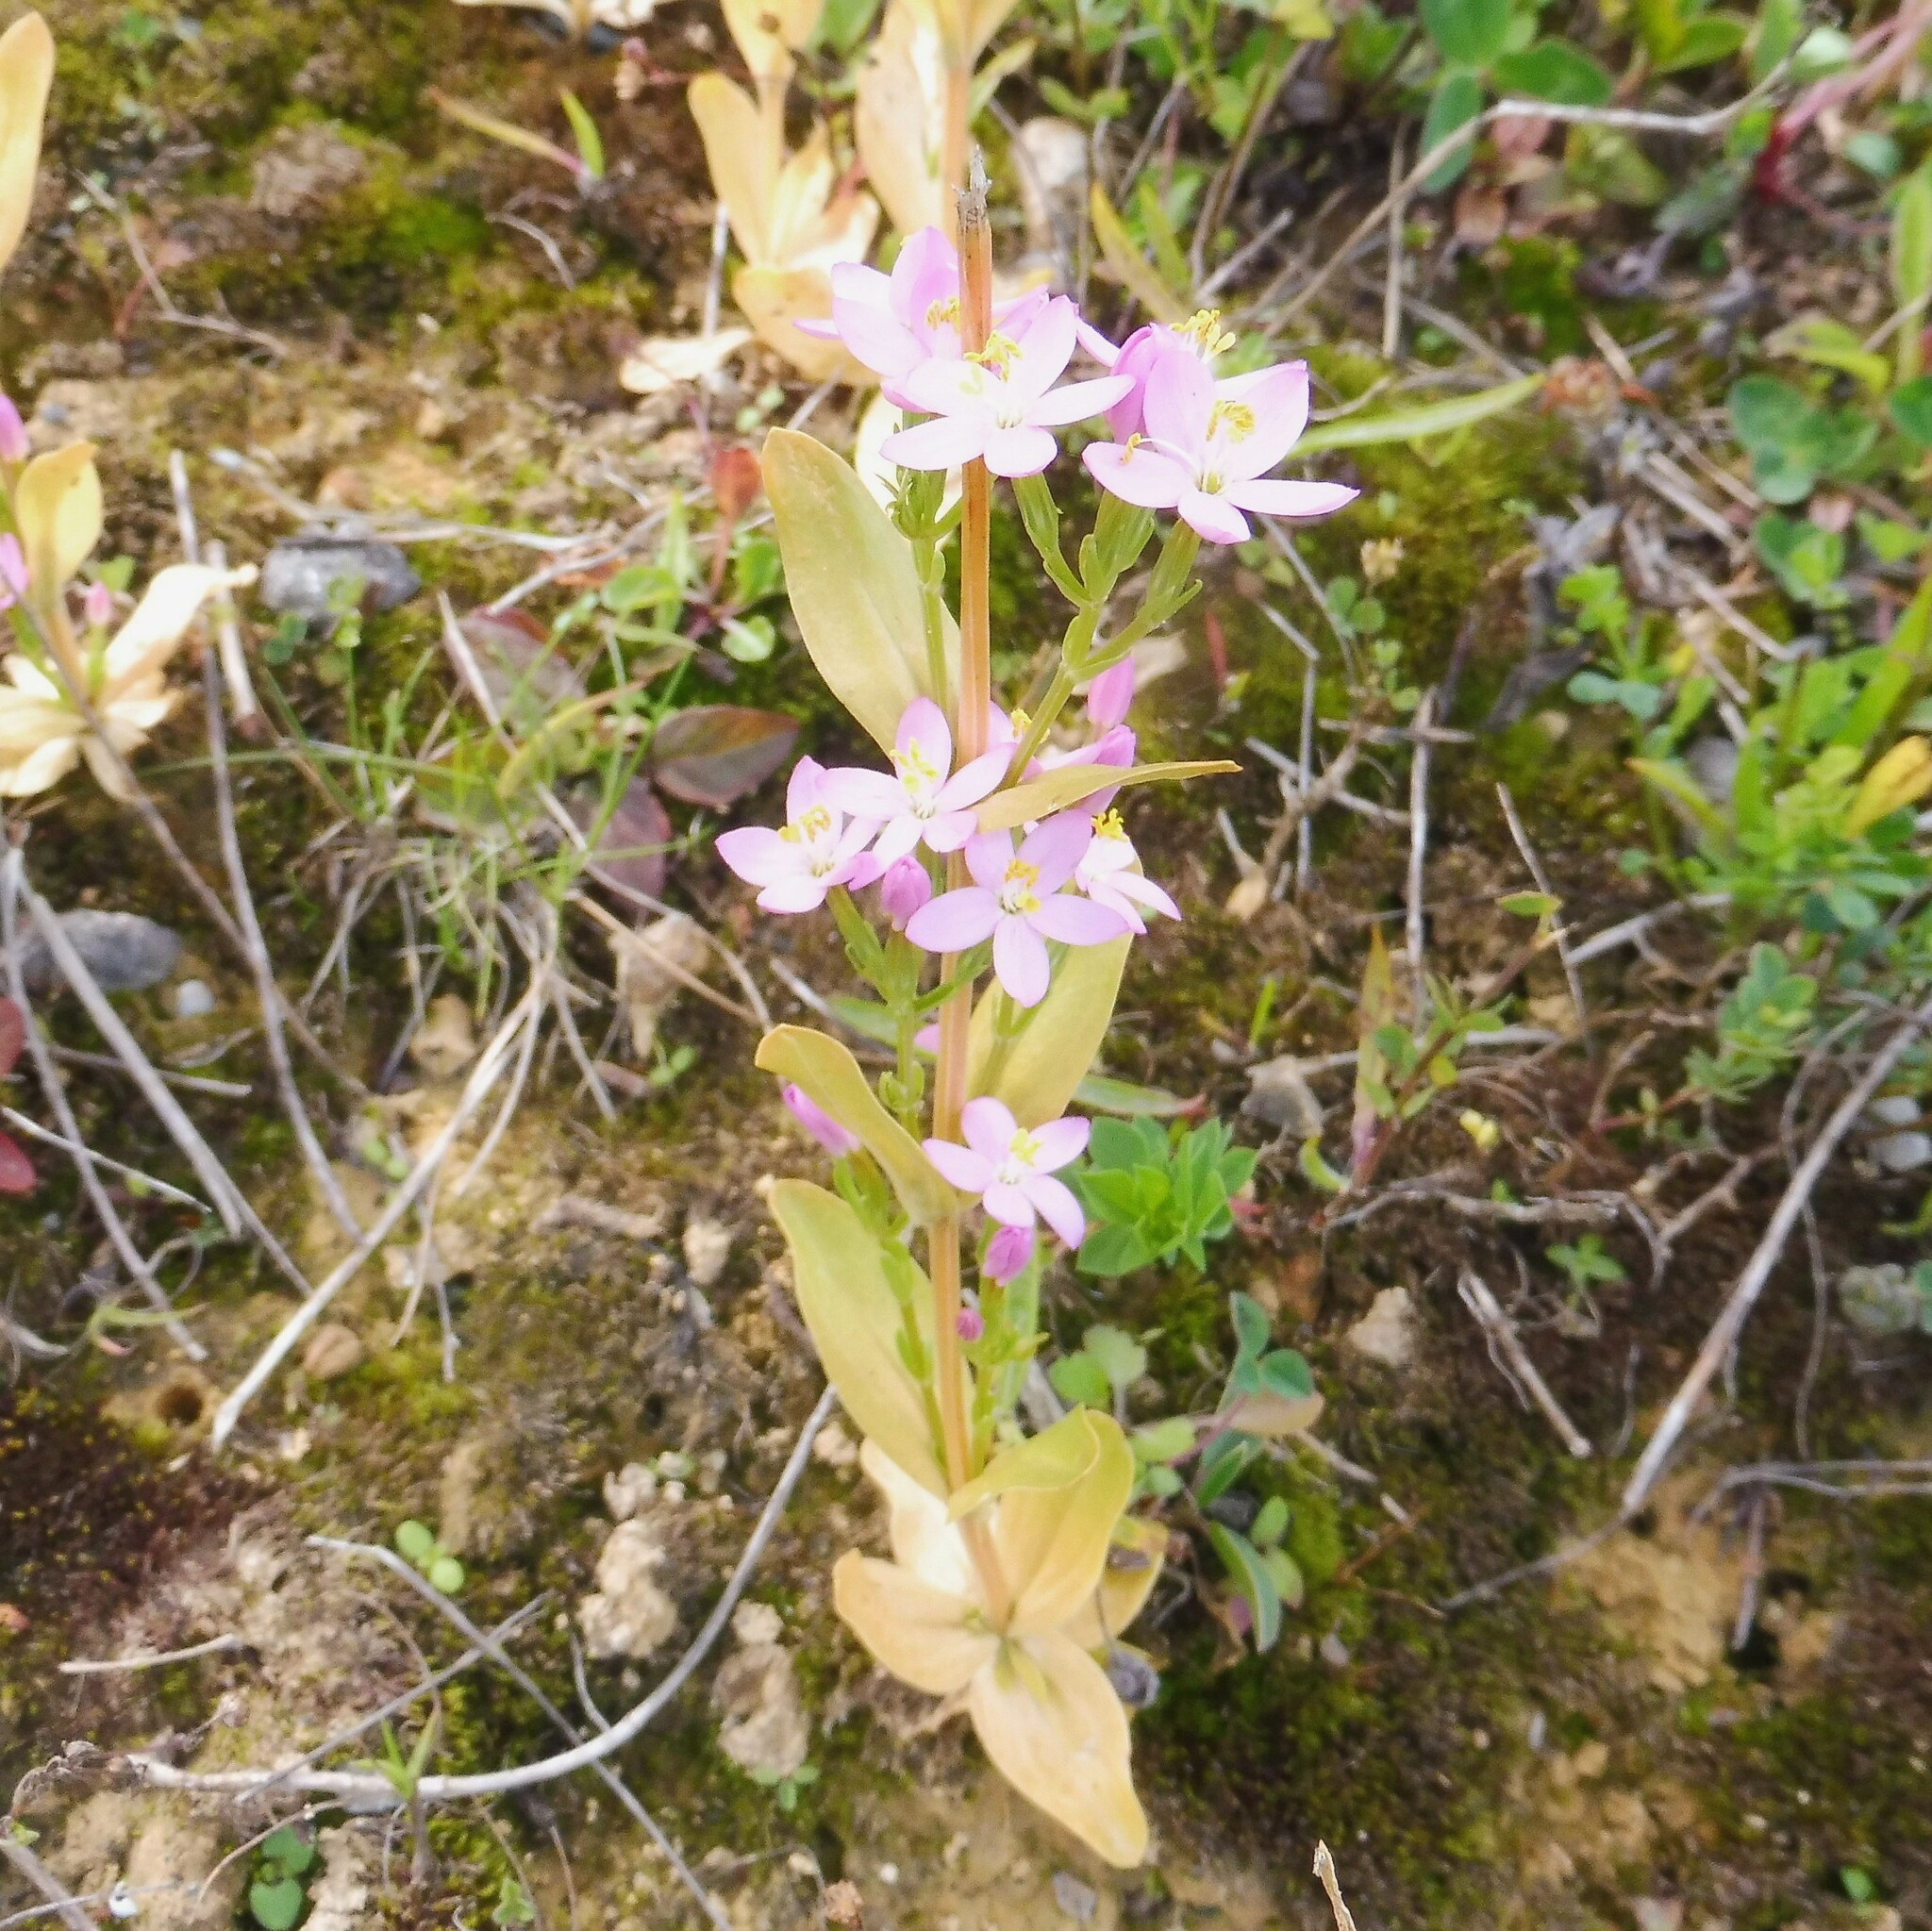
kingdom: Plantae
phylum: Tracheophyta
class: Magnoliopsida
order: Gentianales
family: Gentianaceae
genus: Centaurium
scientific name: Centaurium erythraea
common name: Common centaury
